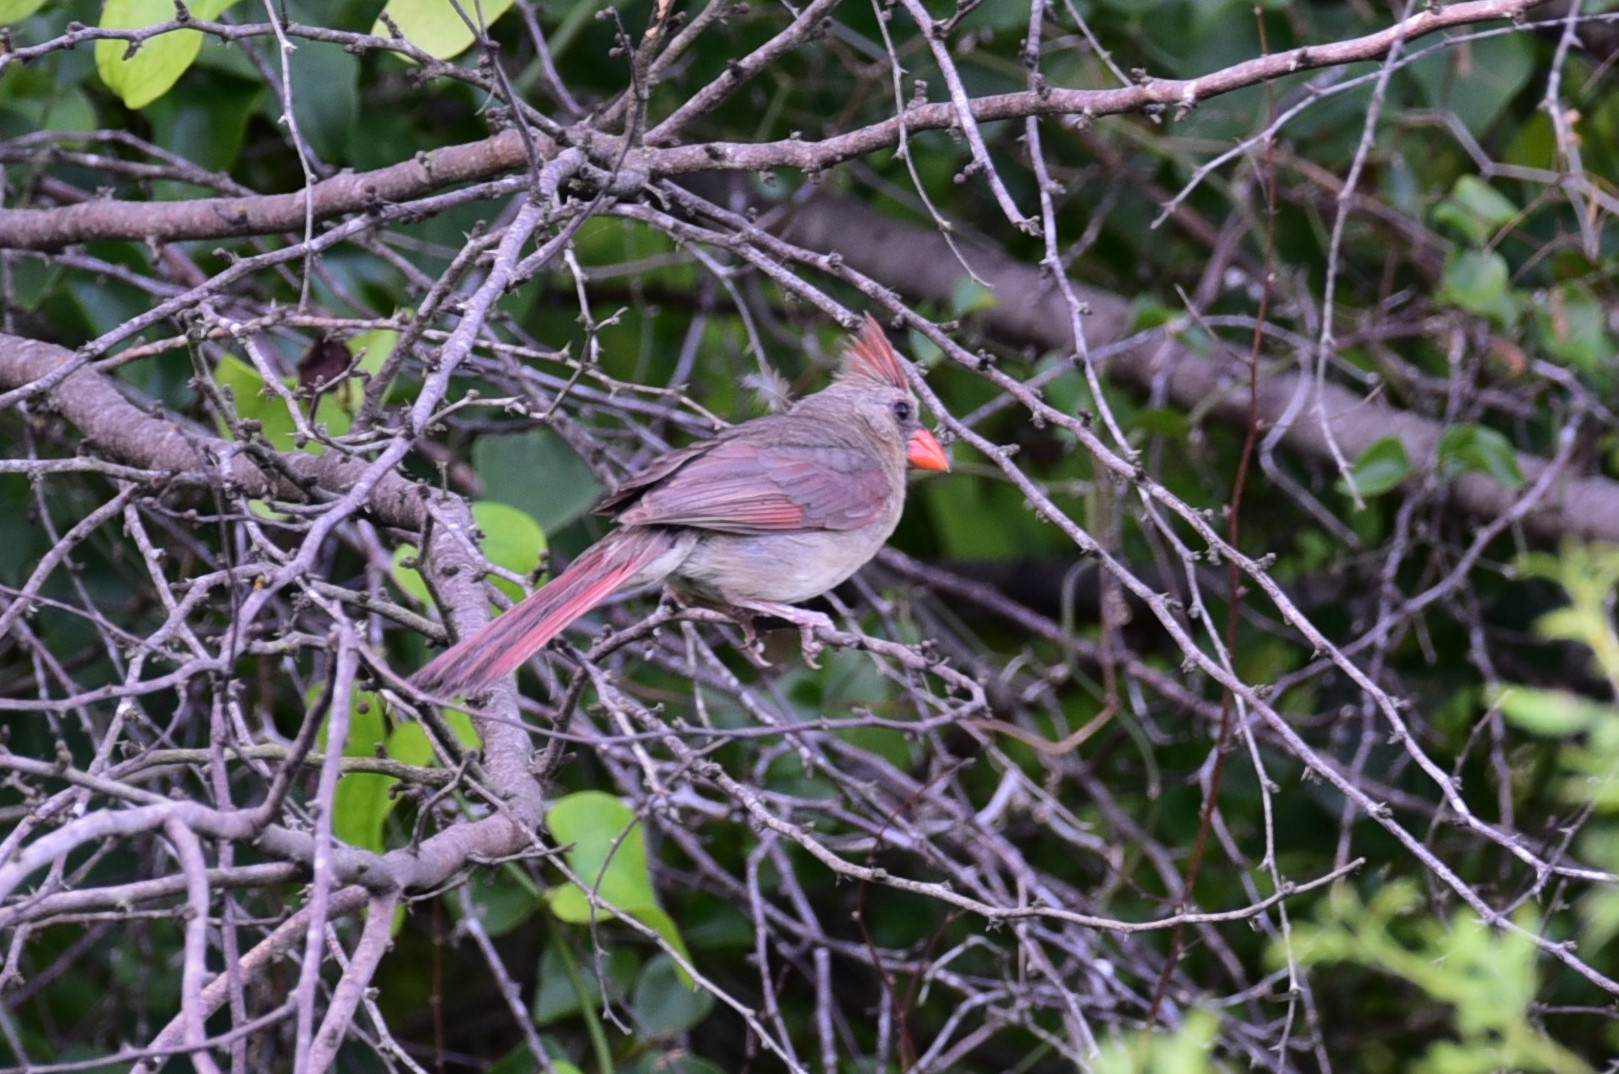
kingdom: Animalia
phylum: Chordata
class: Aves
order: Passeriformes
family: Cardinalidae
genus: Cardinalis
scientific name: Cardinalis cardinalis
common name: Northern cardinal
